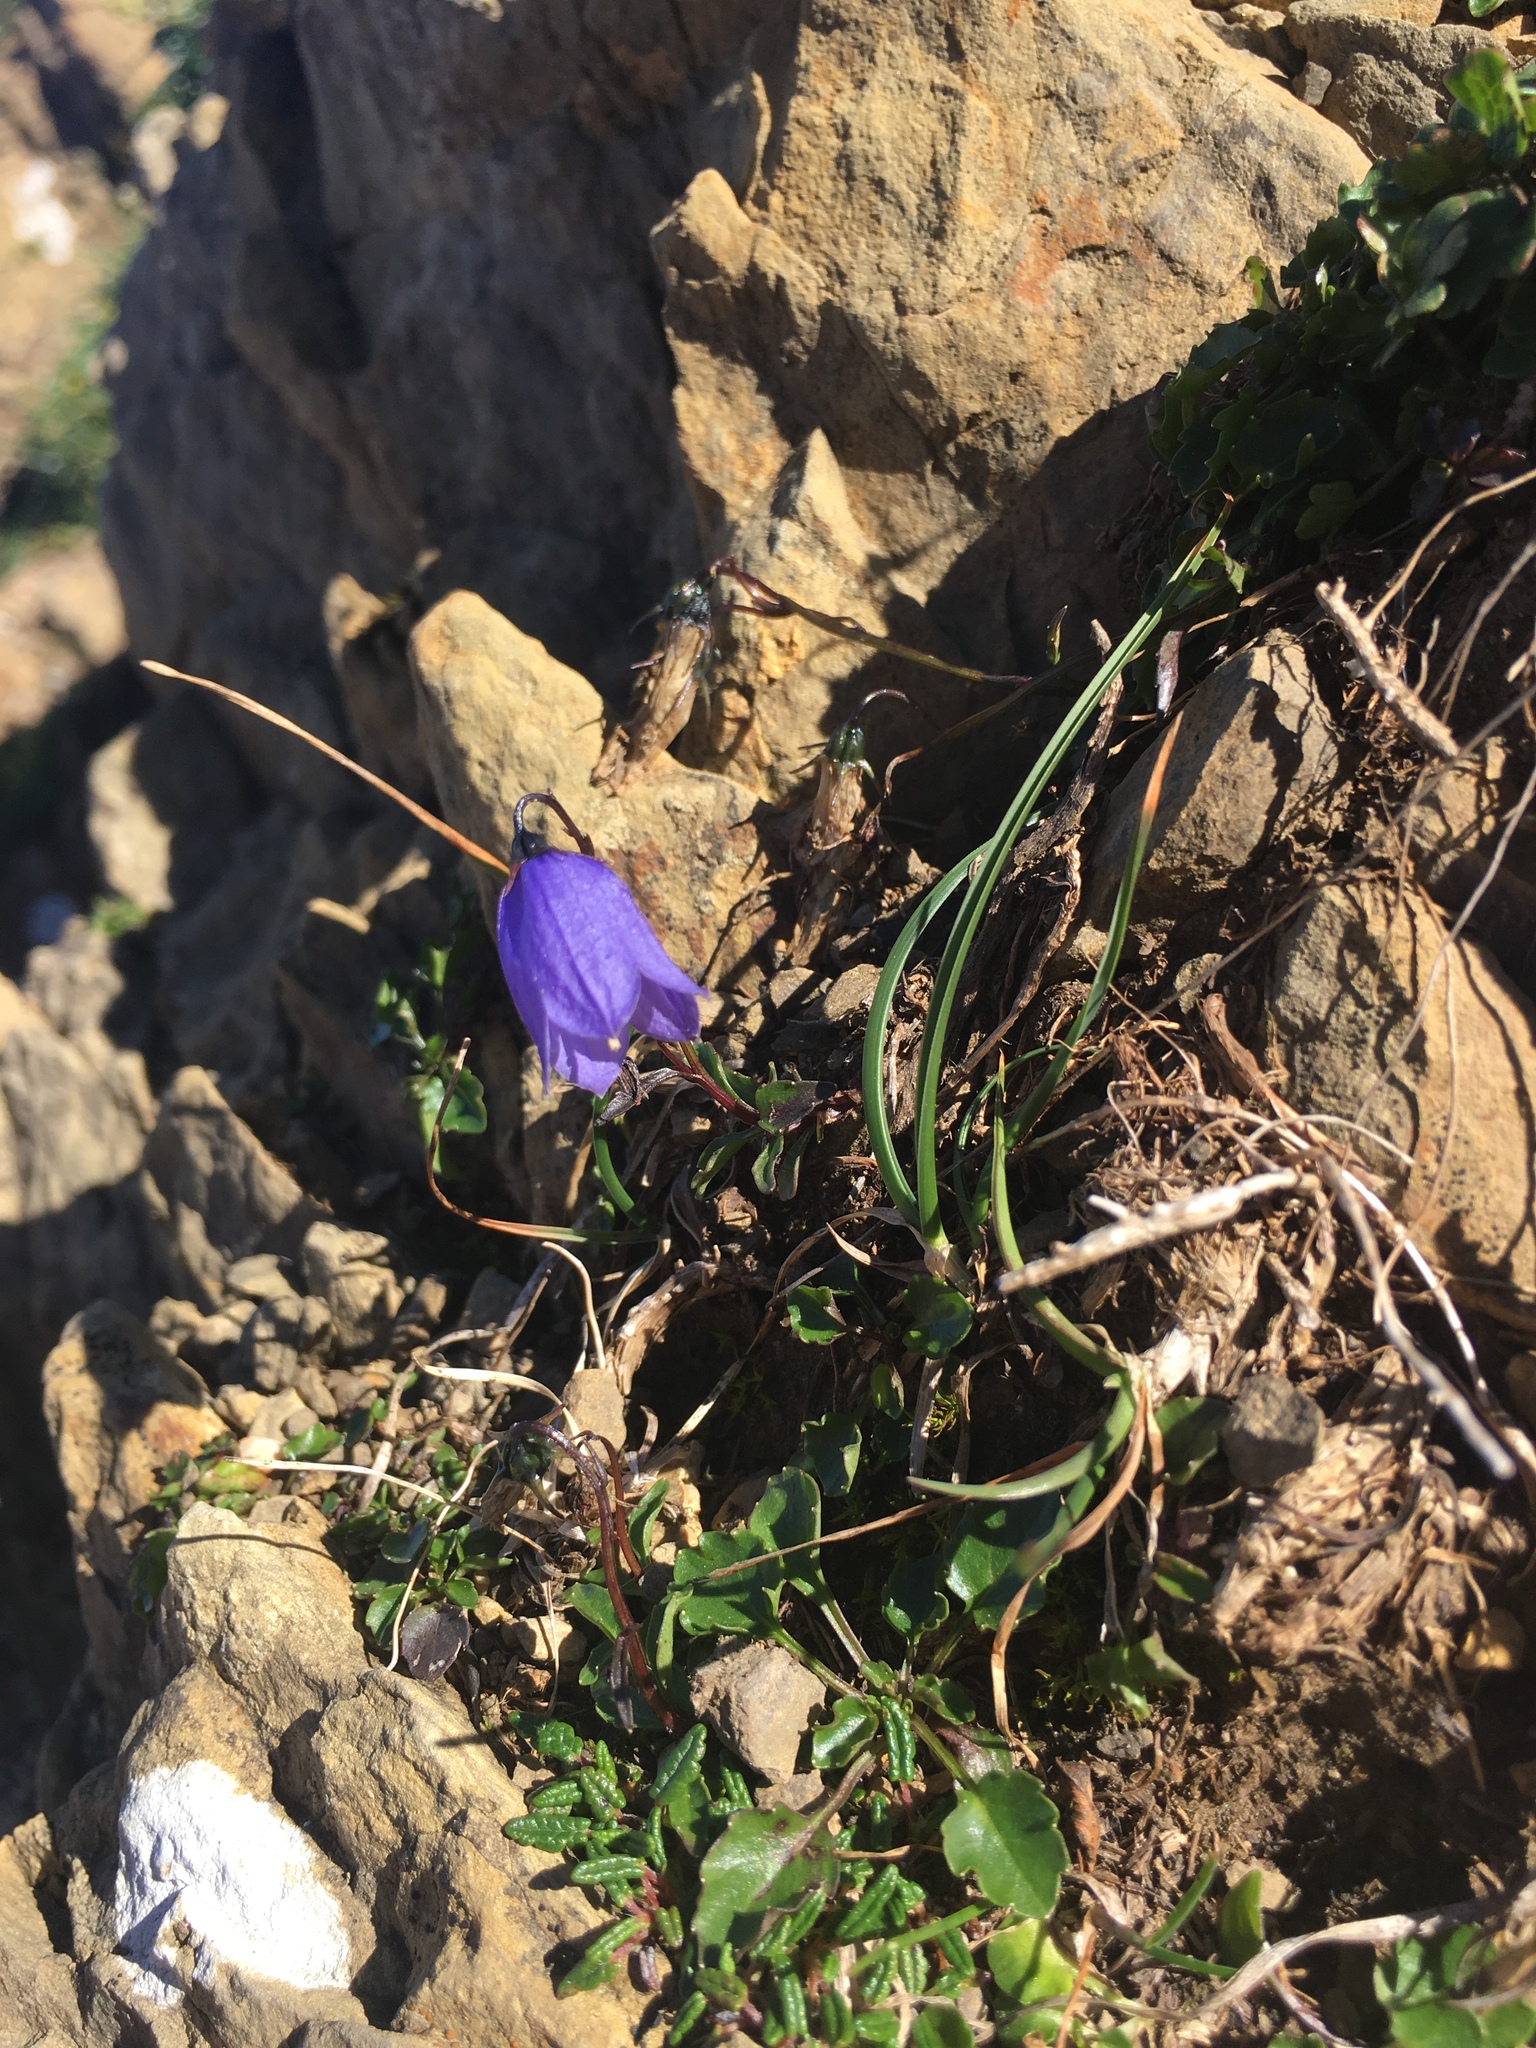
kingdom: Plantae
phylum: Tracheophyta
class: Magnoliopsida
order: Asterales
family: Campanulaceae
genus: Campanula
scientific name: Campanula rotundifolia
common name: Harebell
